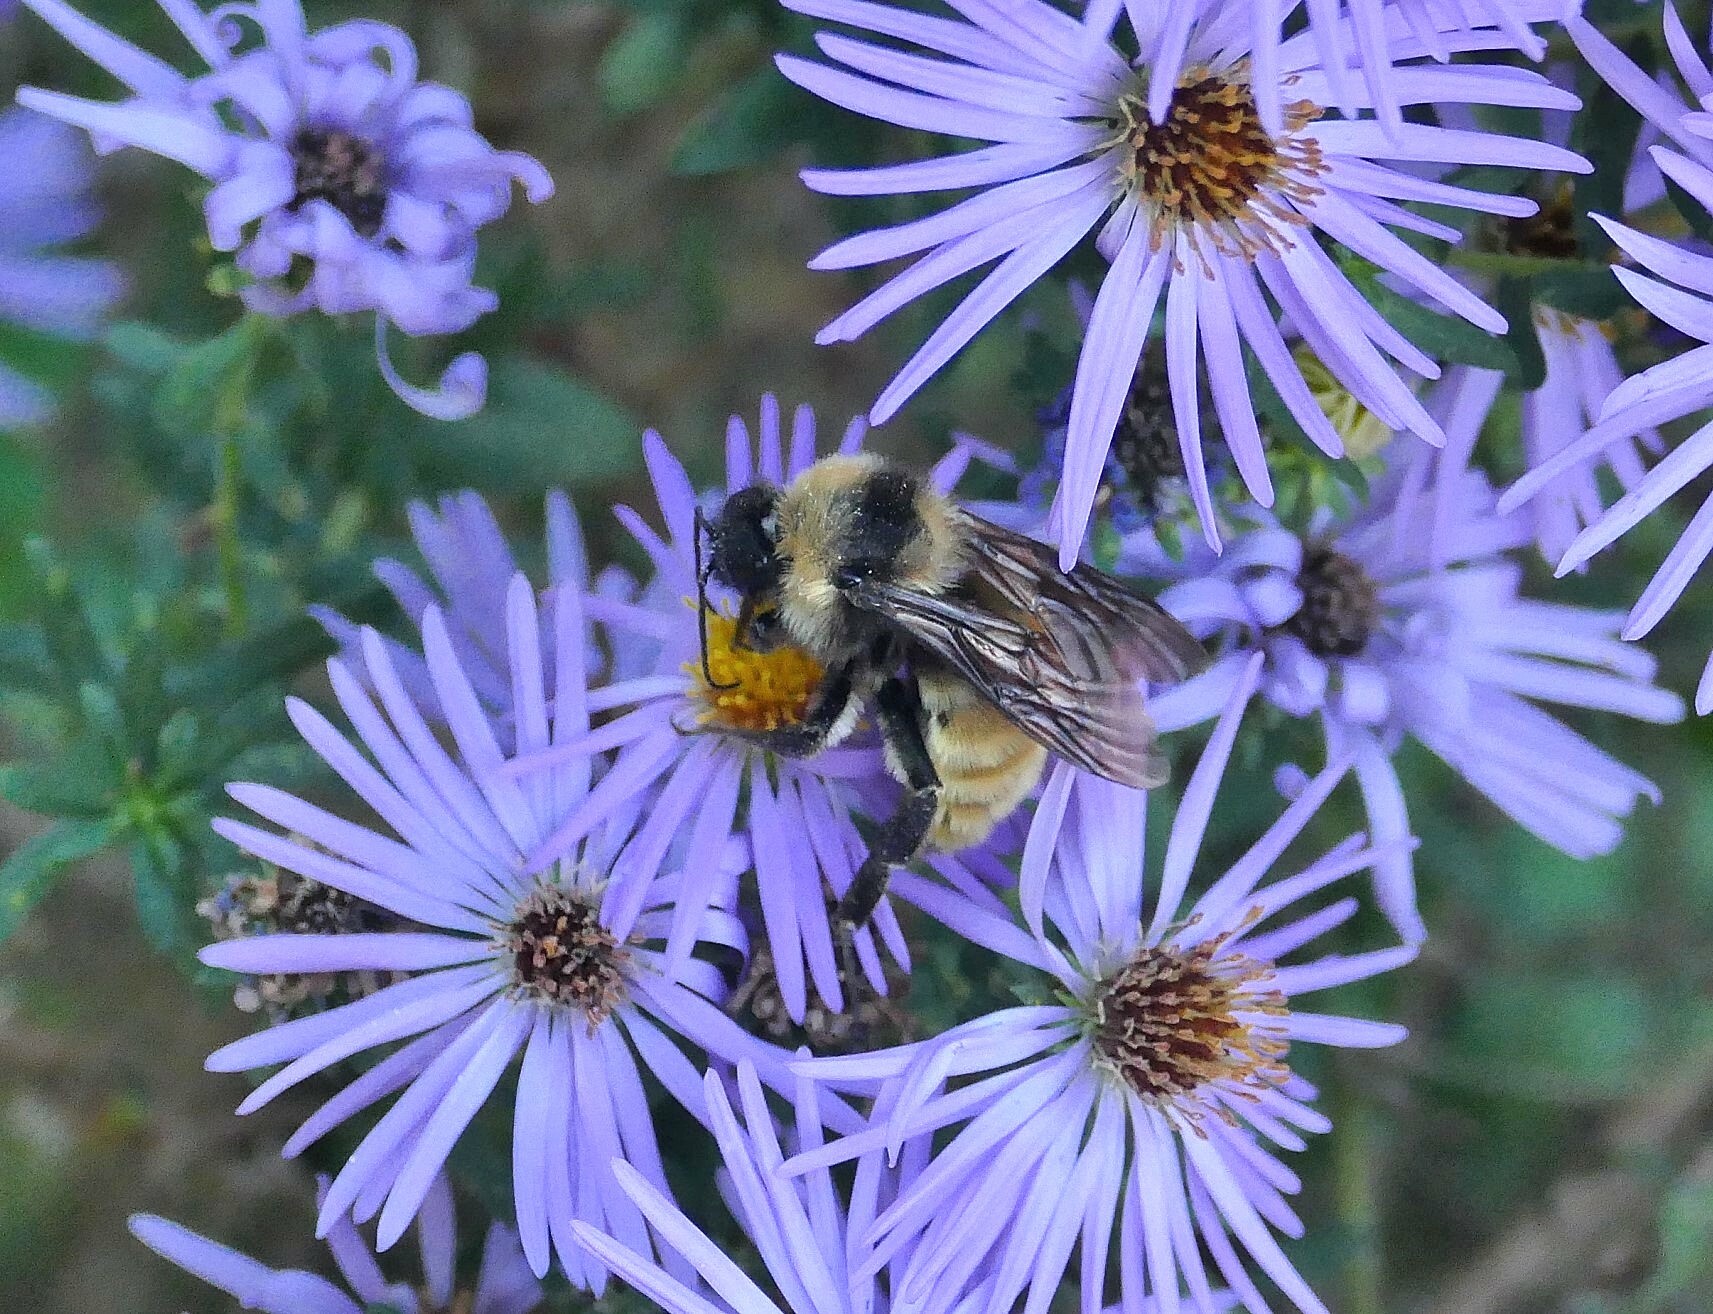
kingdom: Animalia
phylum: Arthropoda
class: Insecta
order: Hymenoptera
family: Apidae
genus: Bombus
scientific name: Bombus pensylvanicus
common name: Bumble bee
